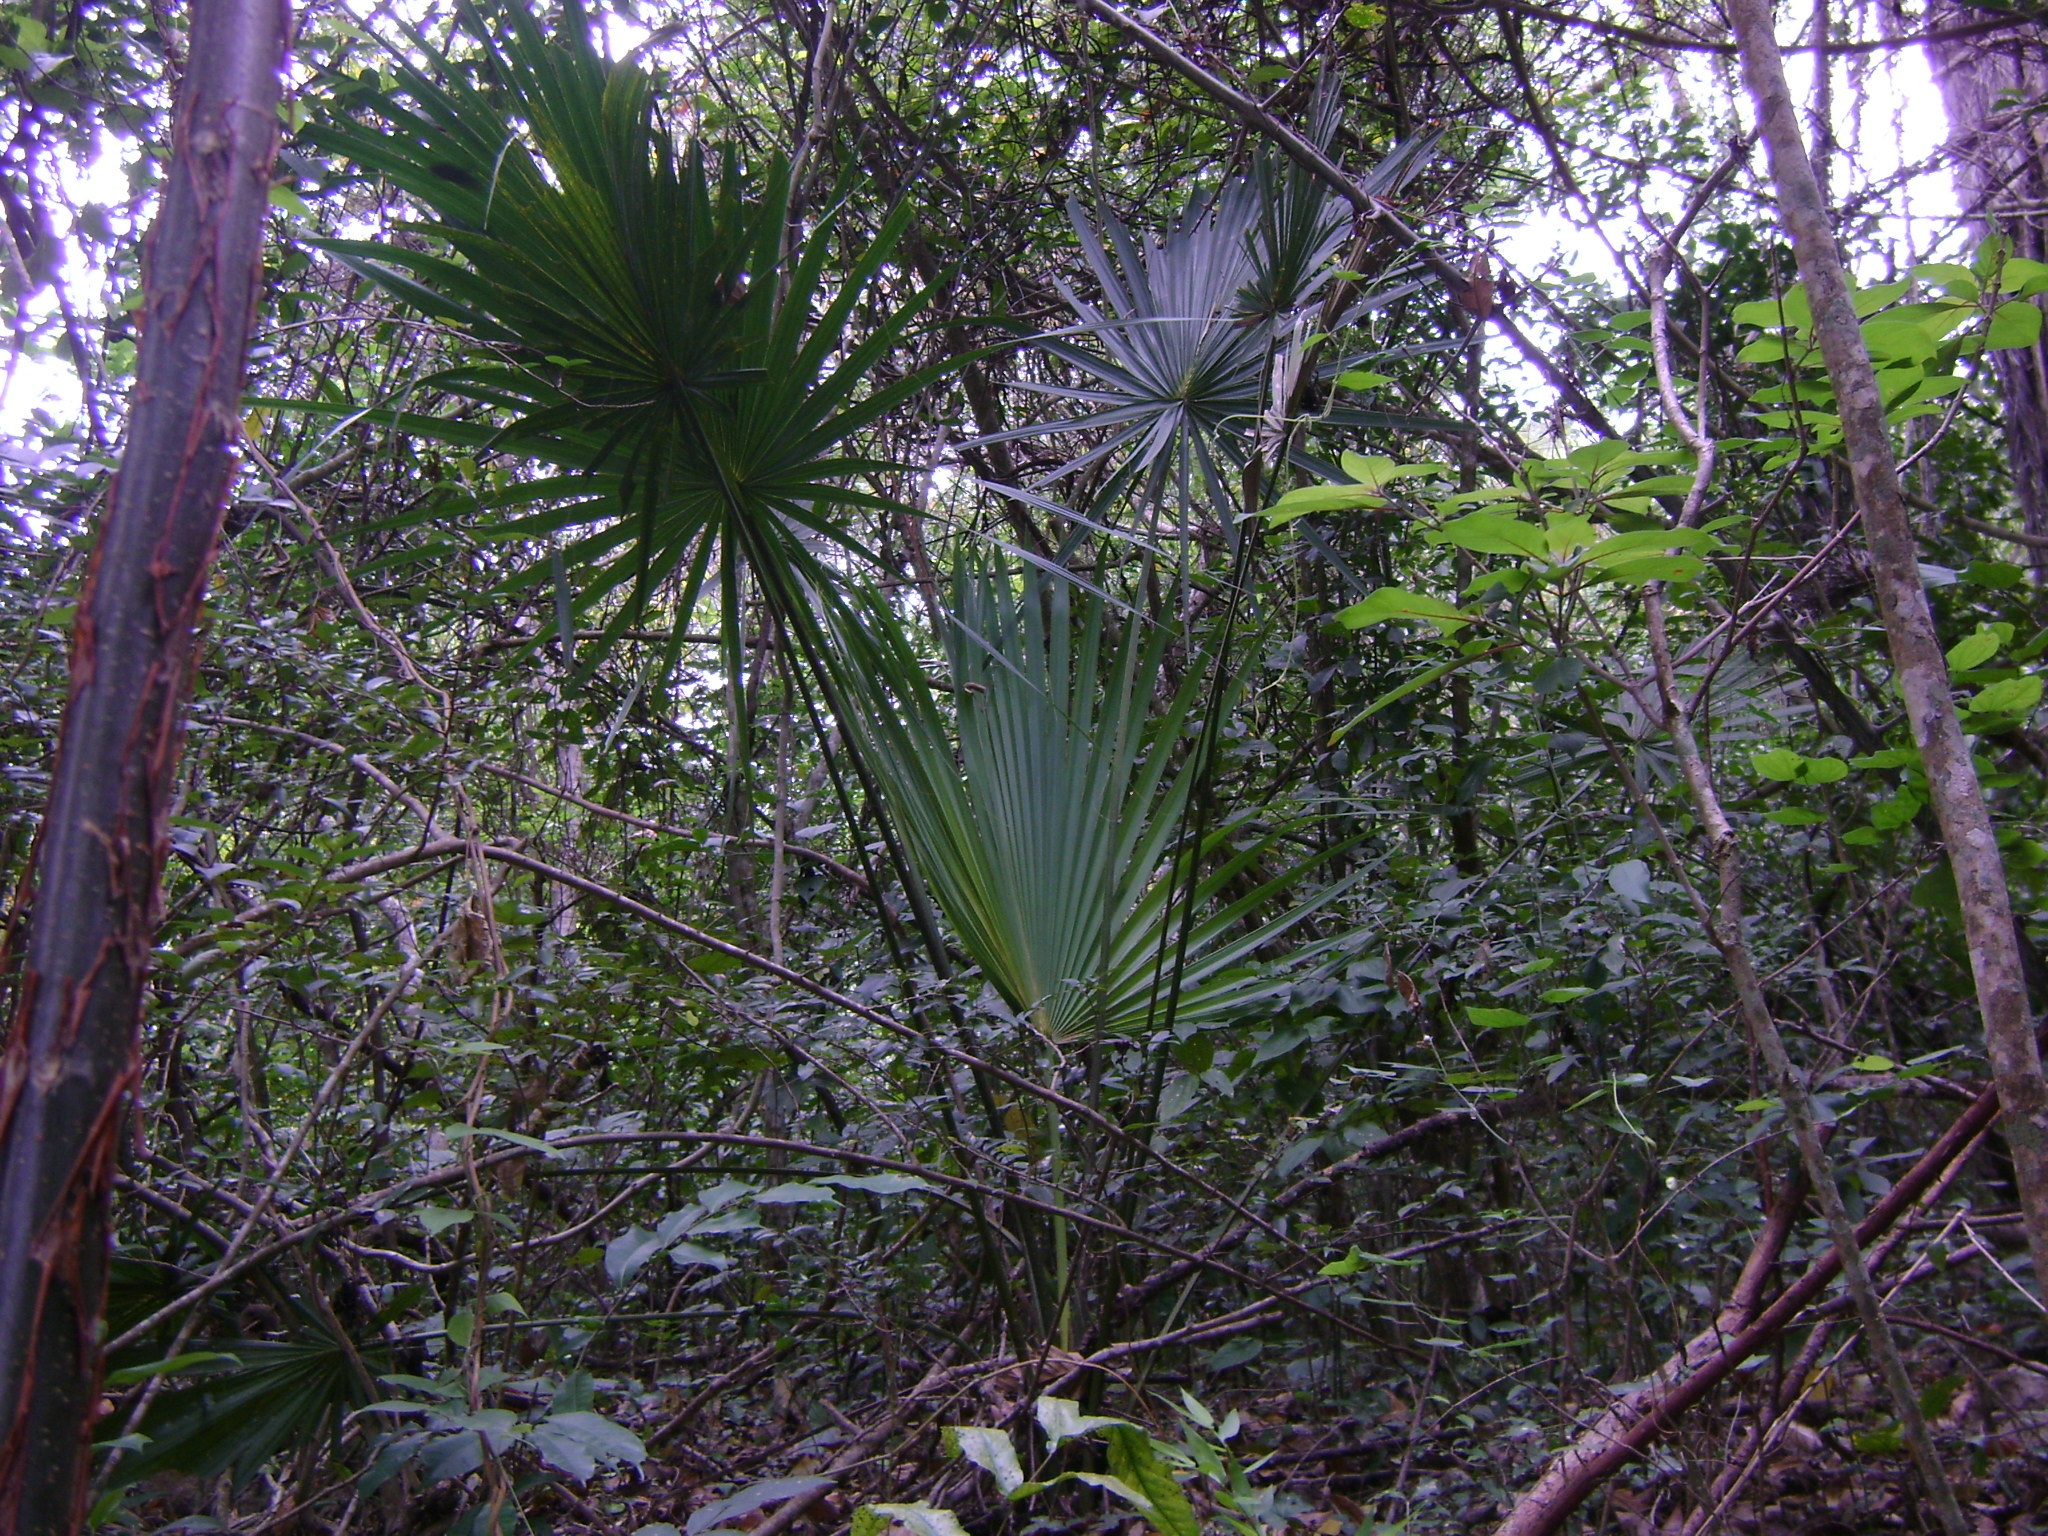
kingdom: Plantae
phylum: Tracheophyta
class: Liliopsida
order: Arecales
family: Arecaceae
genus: Brahea
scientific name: Brahea dulcis
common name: Apak palm
